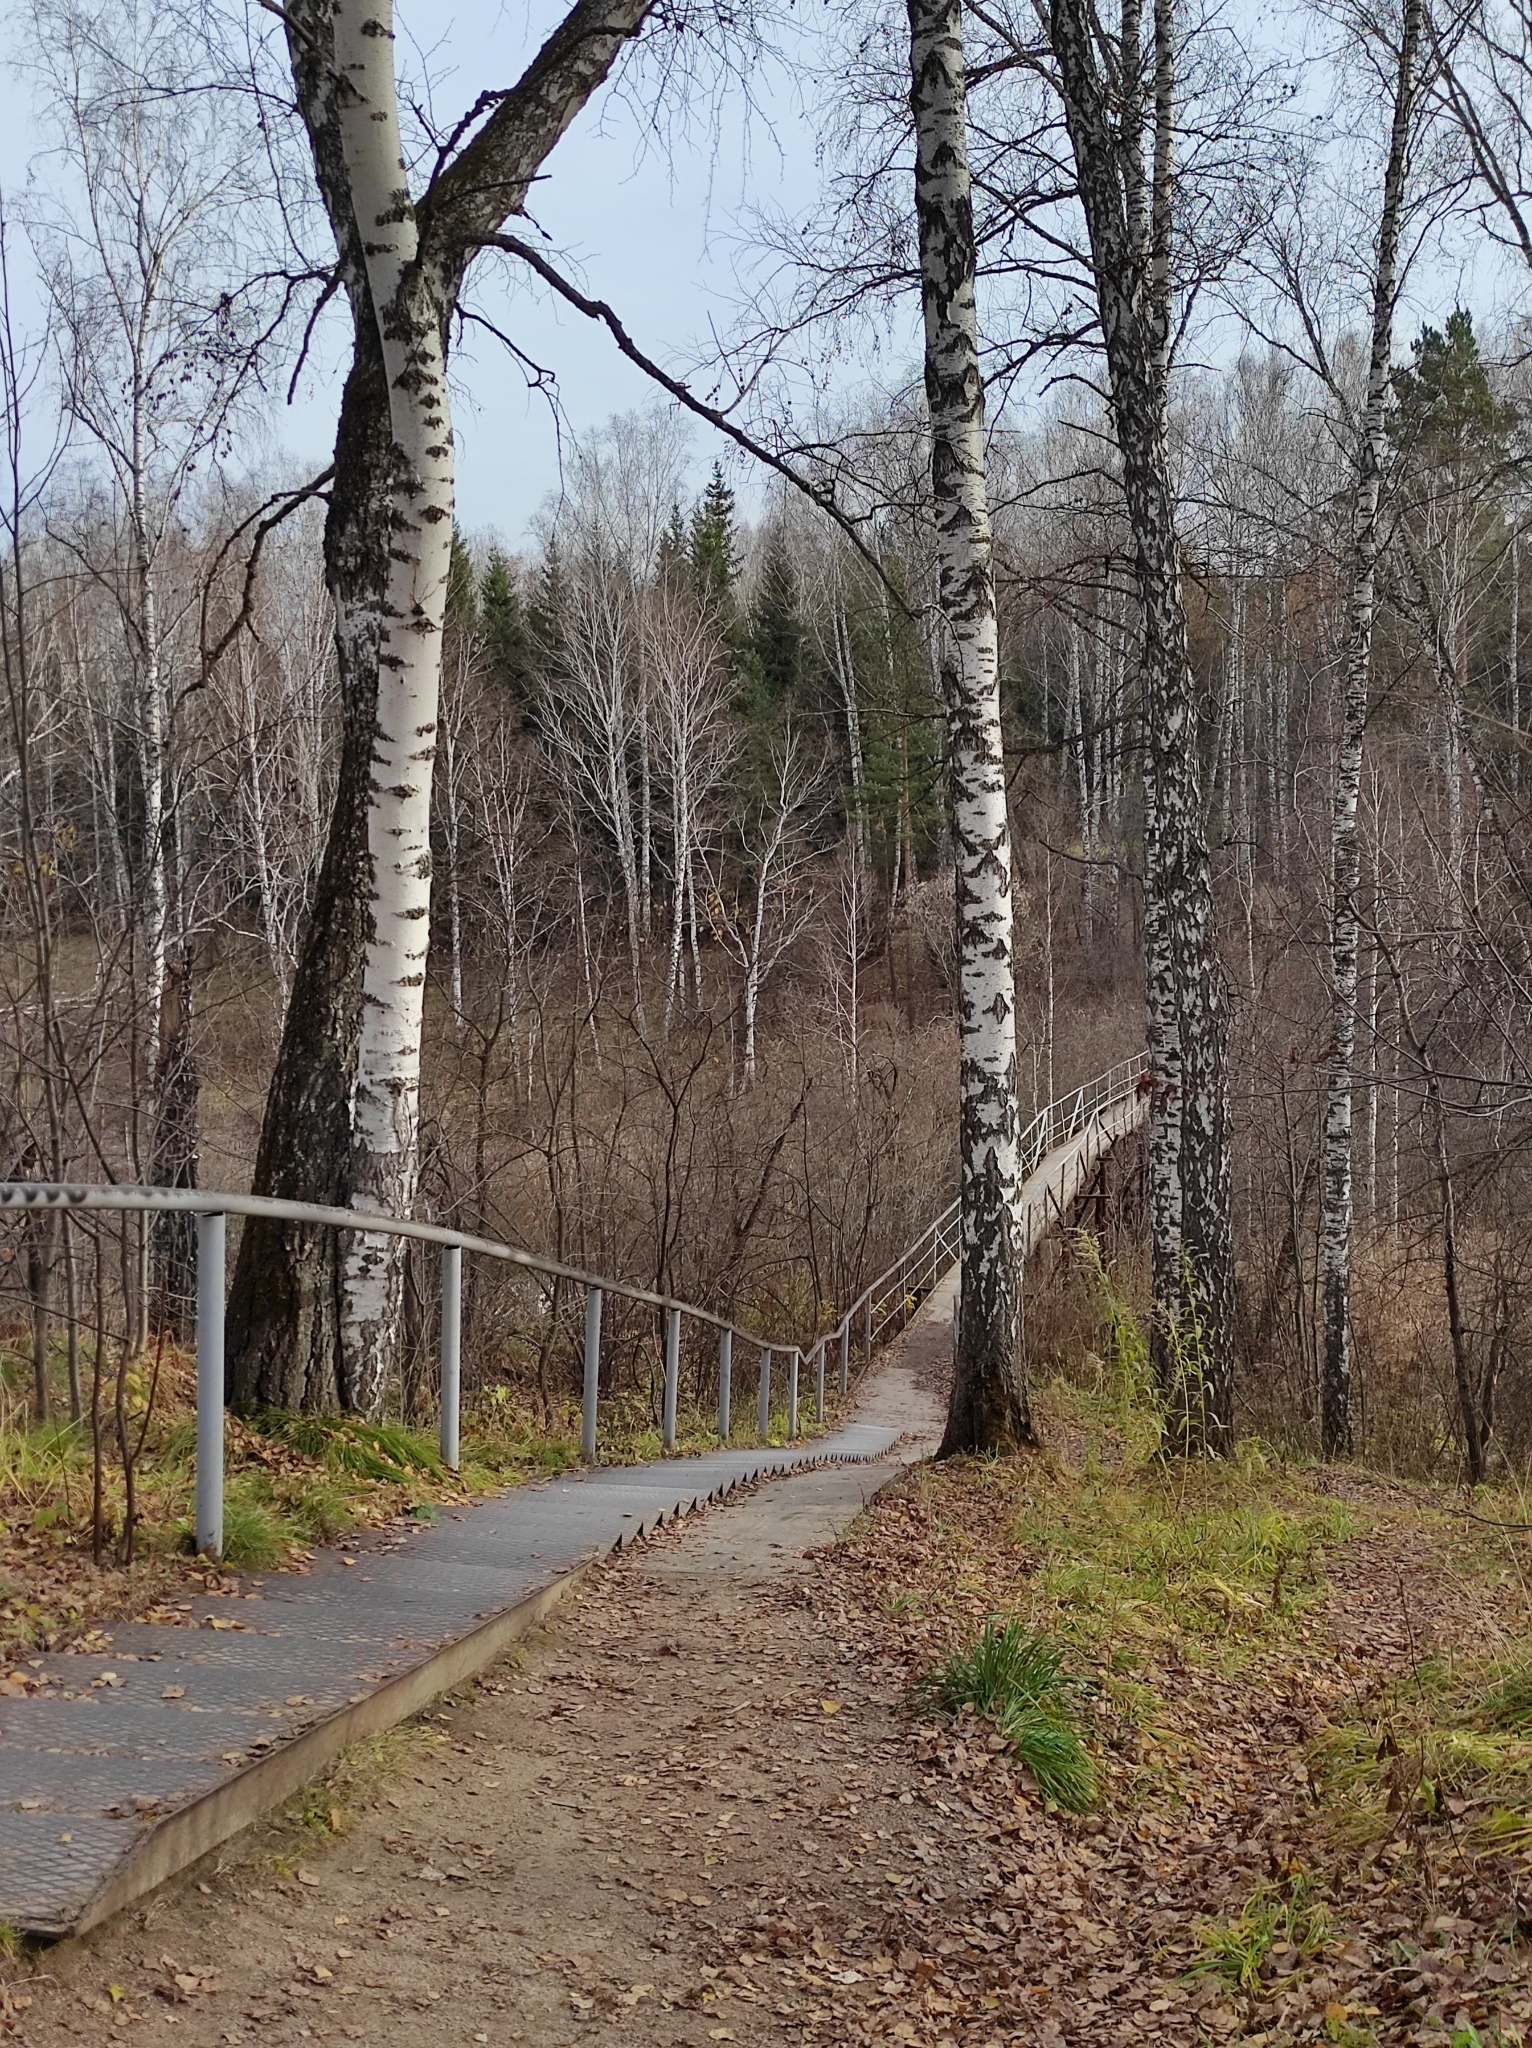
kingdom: Plantae
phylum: Tracheophyta
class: Magnoliopsida
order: Fagales
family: Betulaceae
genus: Betula
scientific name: Betula pendula
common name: Silver birch
